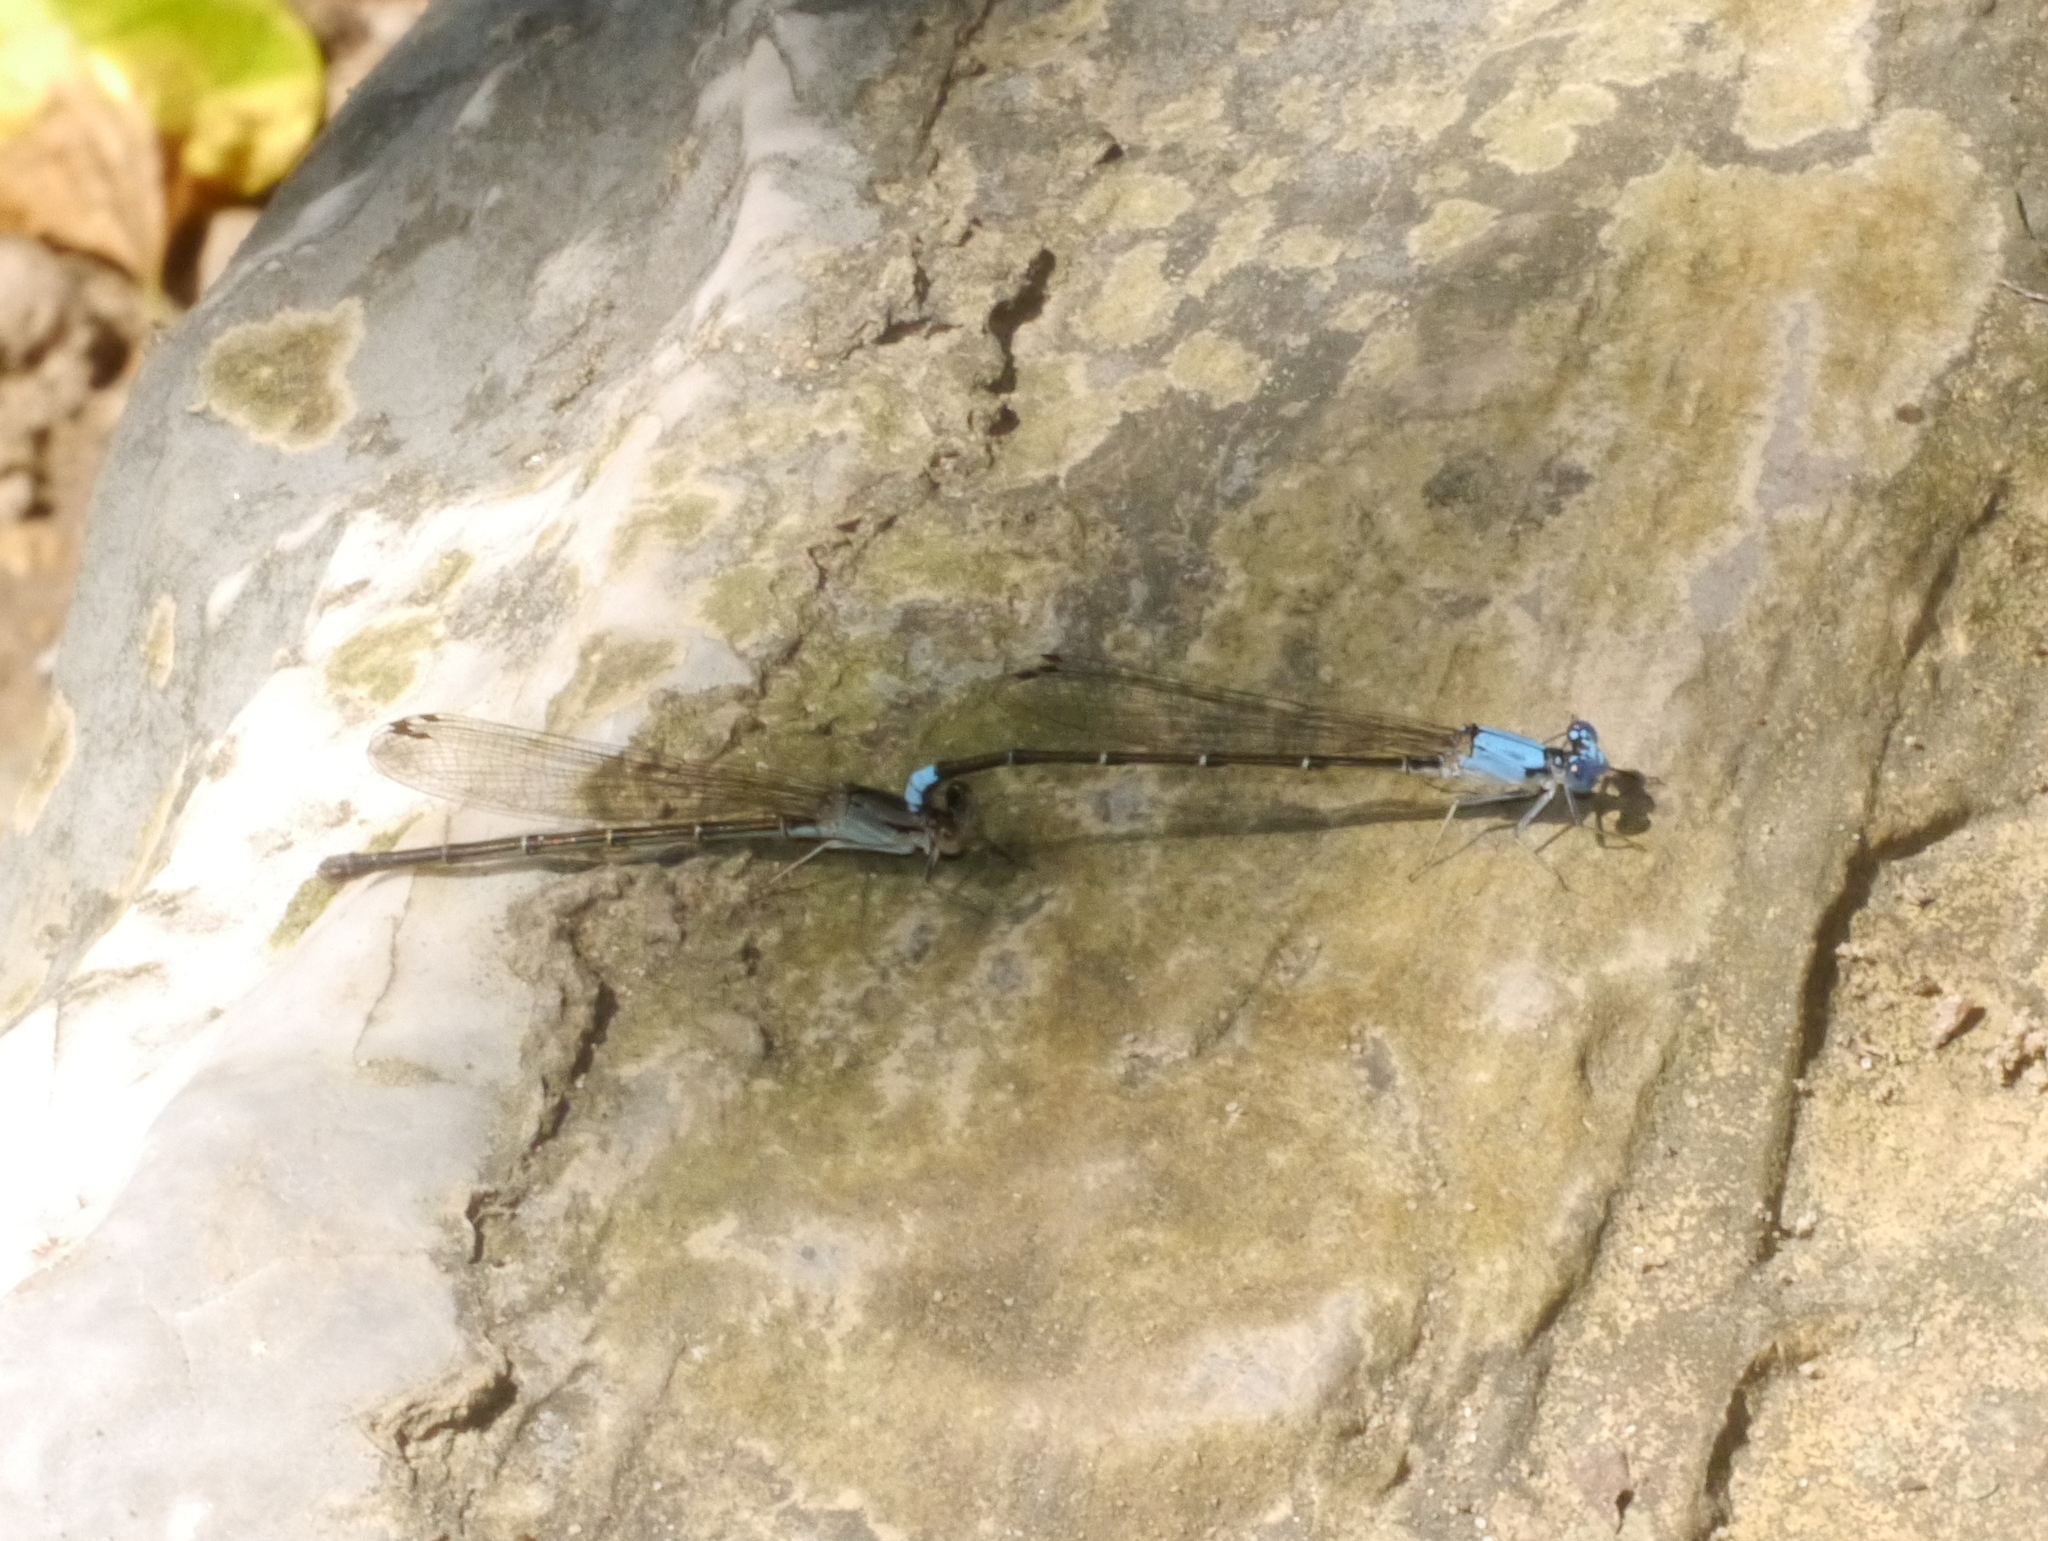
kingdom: Animalia
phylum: Arthropoda
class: Insecta
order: Odonata
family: Coenagrionidae
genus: Argia
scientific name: Argia apicalis
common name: Blue-fronted dancer
